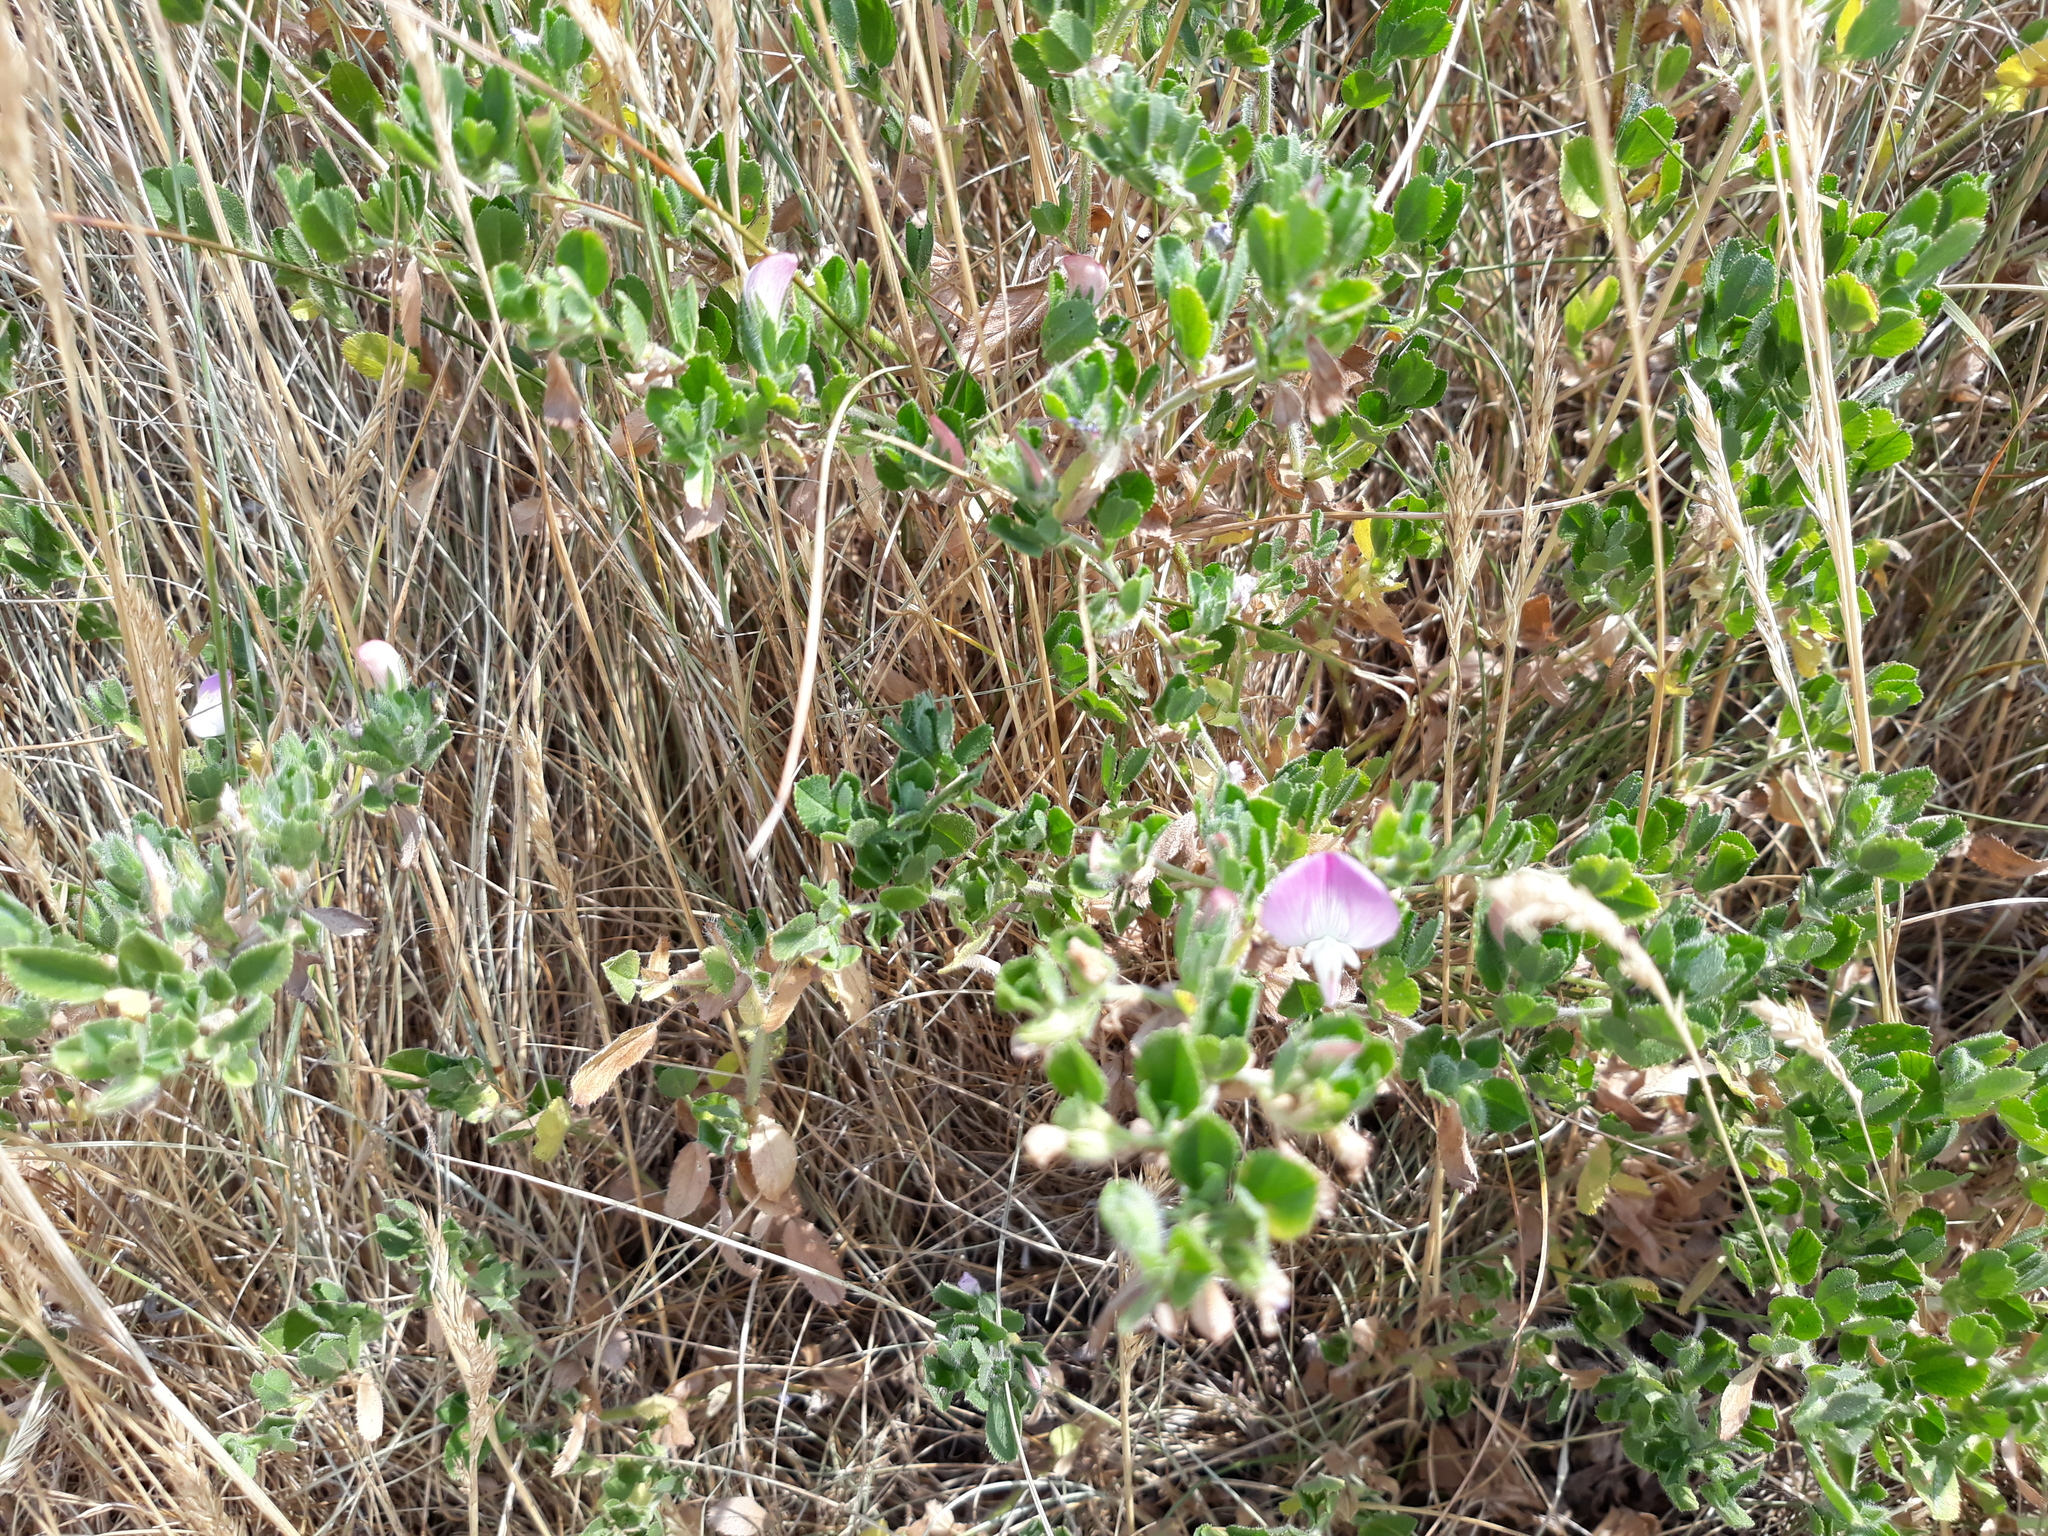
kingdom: Plantae
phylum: Tracheophyta
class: Magnoliopsida
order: Fabales
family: Fabaceae
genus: Ononis
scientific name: Ononis spinosa
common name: Spiny restharrow
